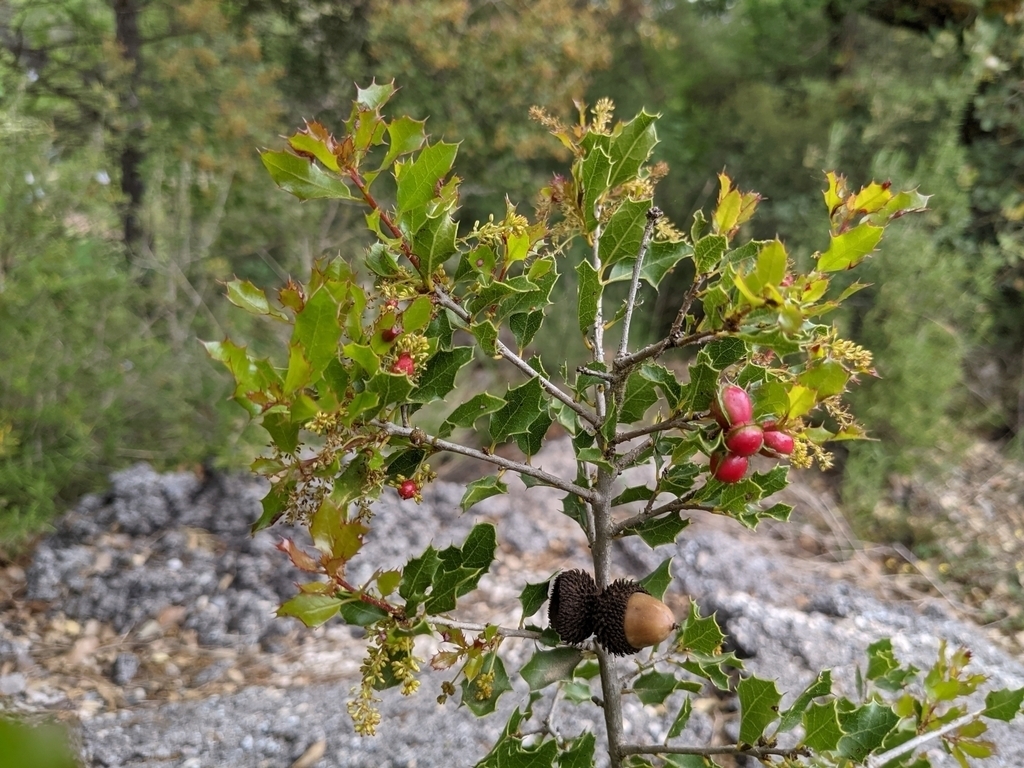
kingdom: Animalia
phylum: Arthropoda
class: Insecta
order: Hymenoptera
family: Cynipidae
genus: Plagiotrochus
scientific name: Plagiotrochus quercusilicis
